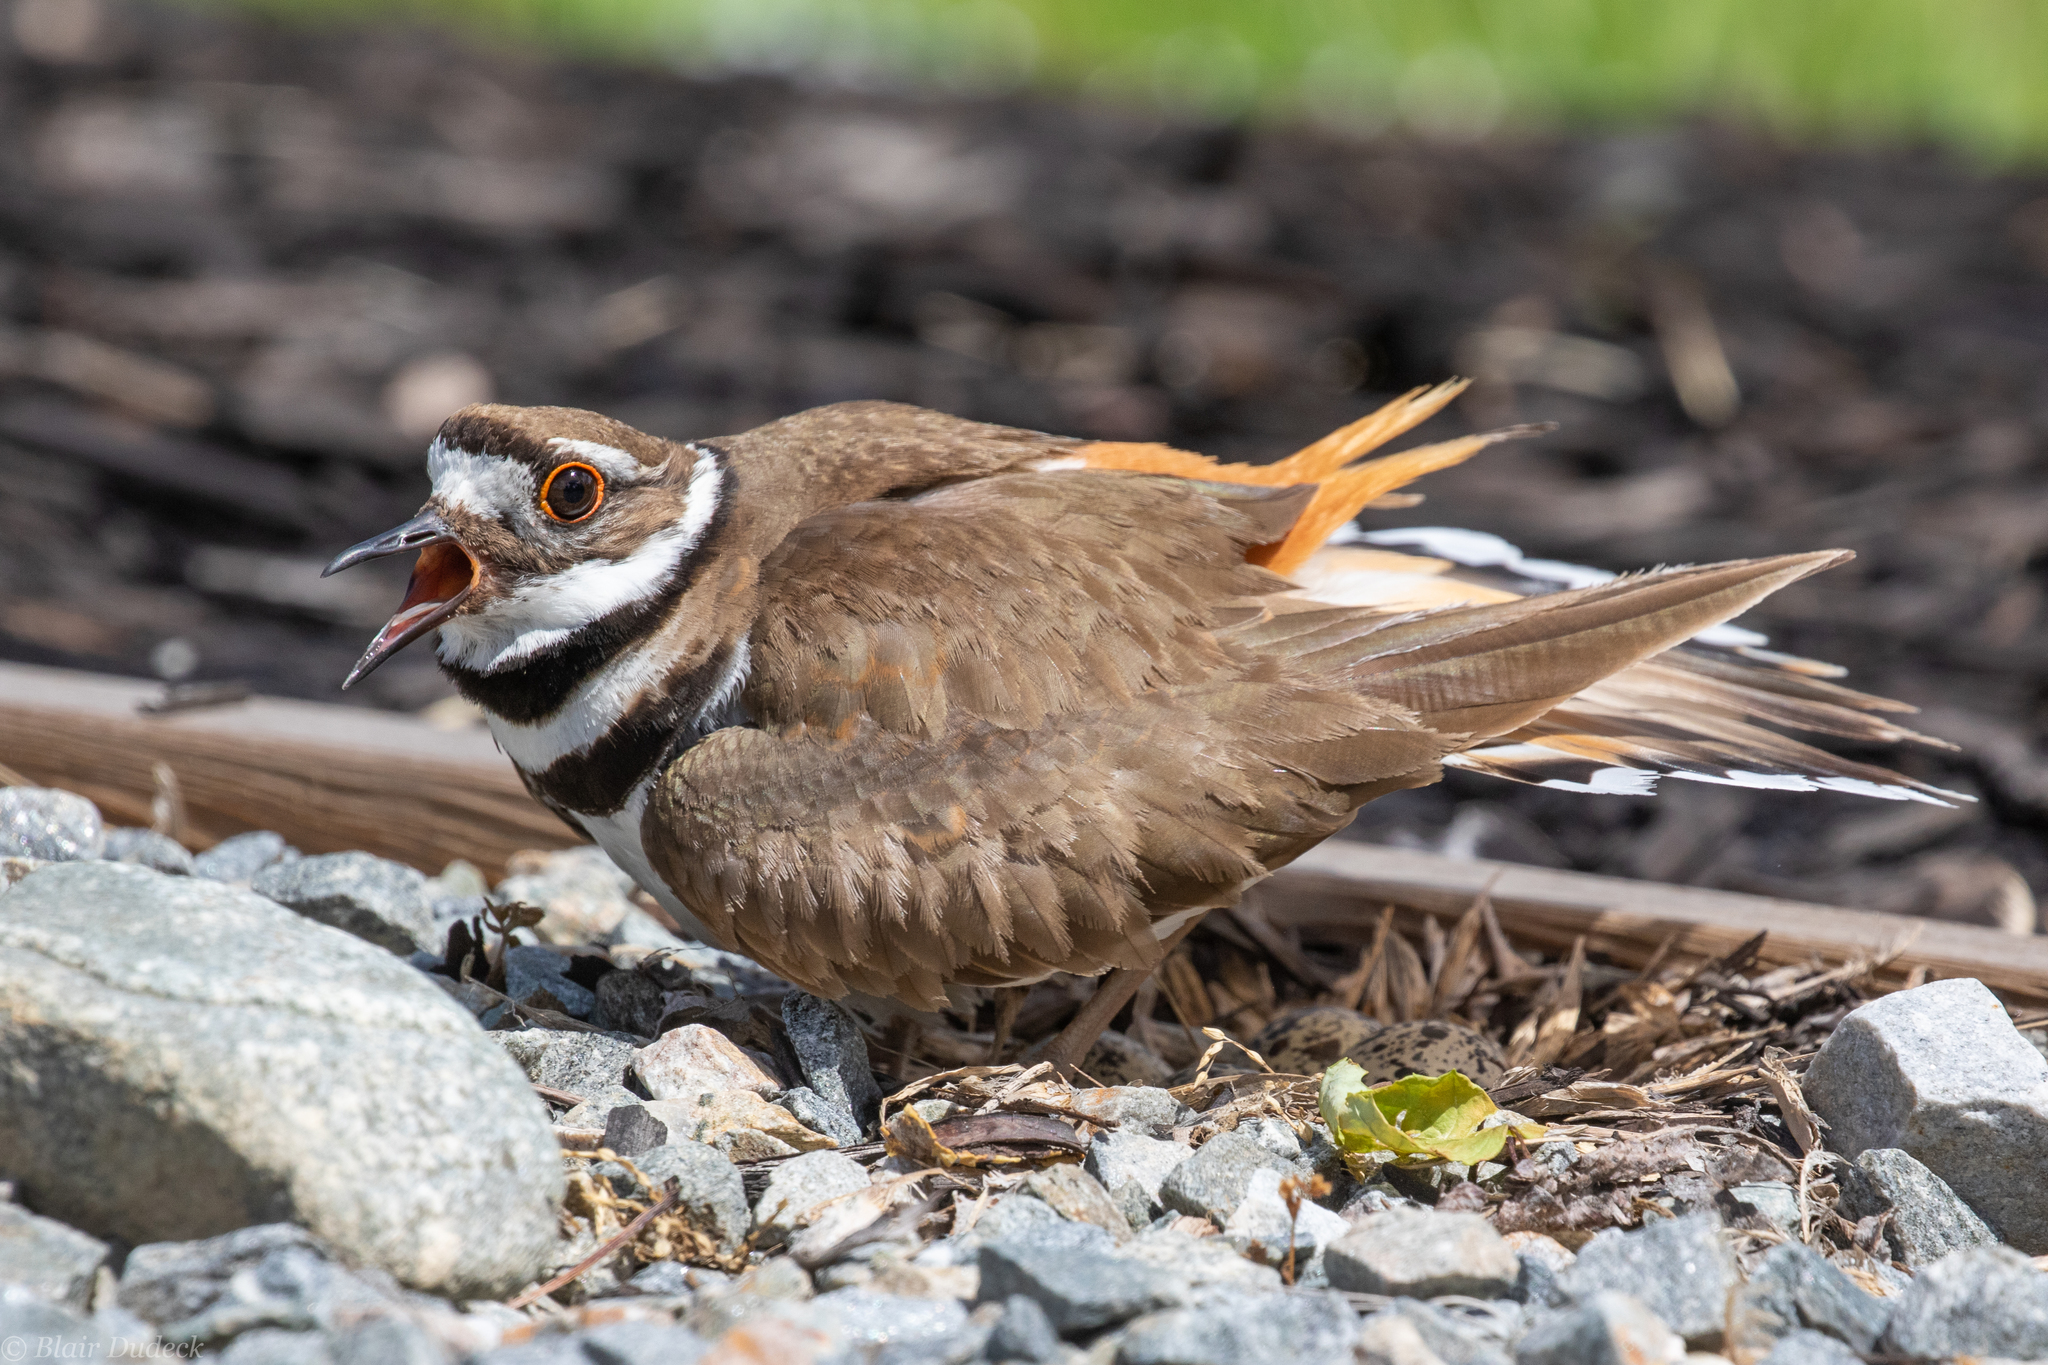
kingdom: Animalia
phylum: Chordata
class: Aves
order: Charadriiformes
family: Charadriidae
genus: Charadrius
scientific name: Charadrius vociferus
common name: Killdeer
